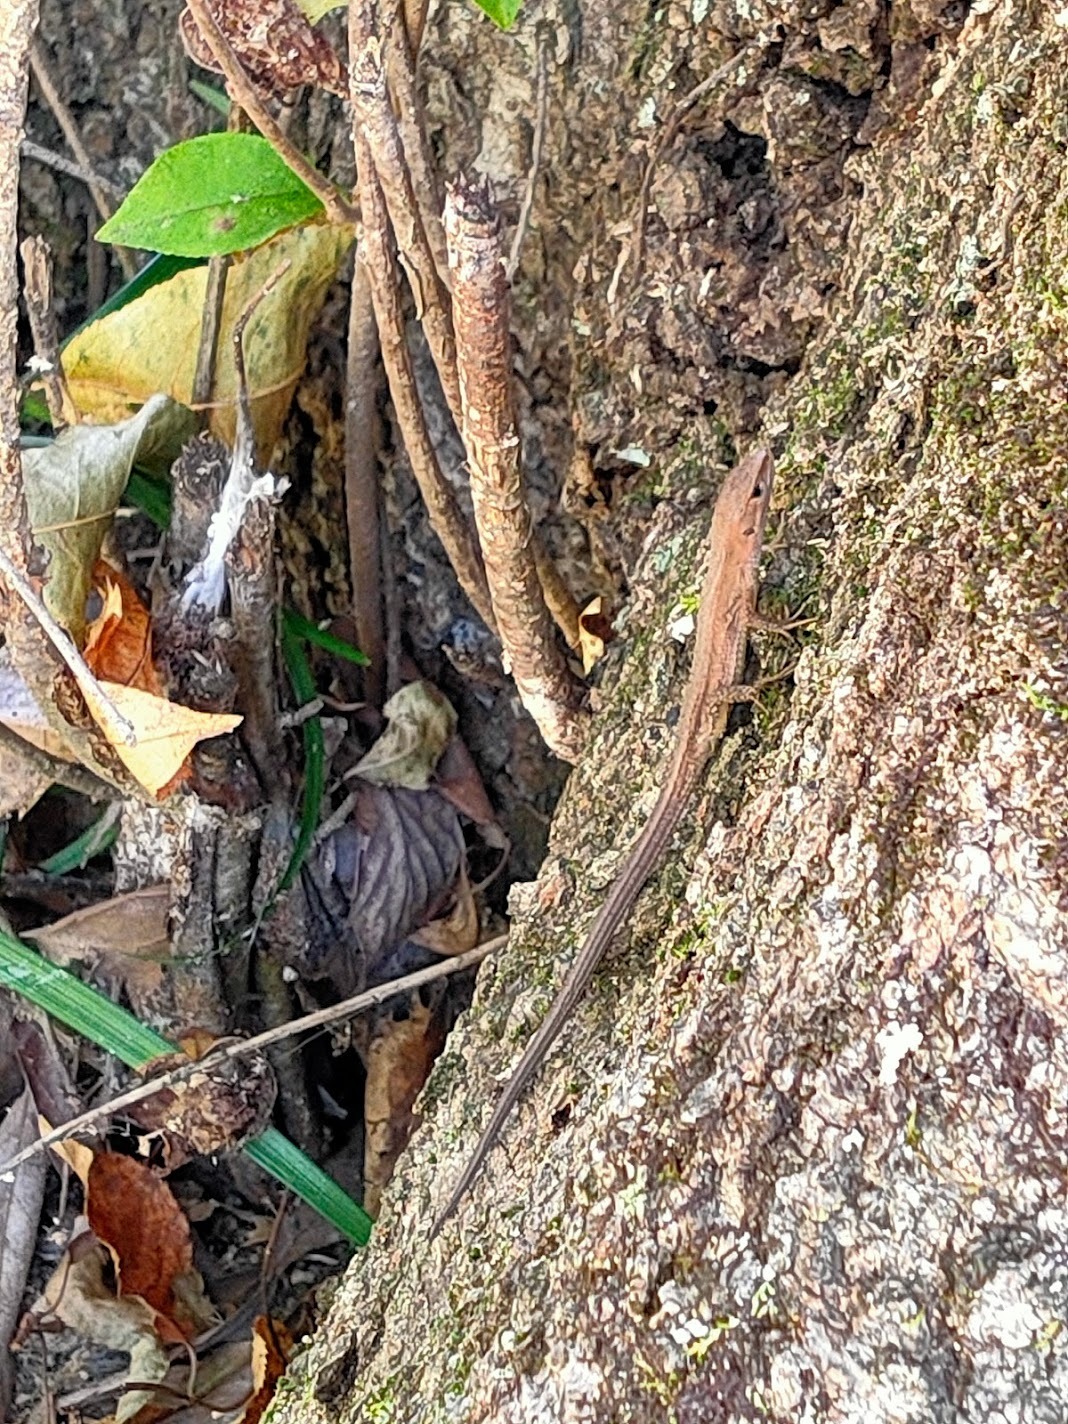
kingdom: Animalia
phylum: Chordata
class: Squamata
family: Lacertidae
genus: Takydromus
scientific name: Takydromus tachydromoides
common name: Japanese grass lizard
